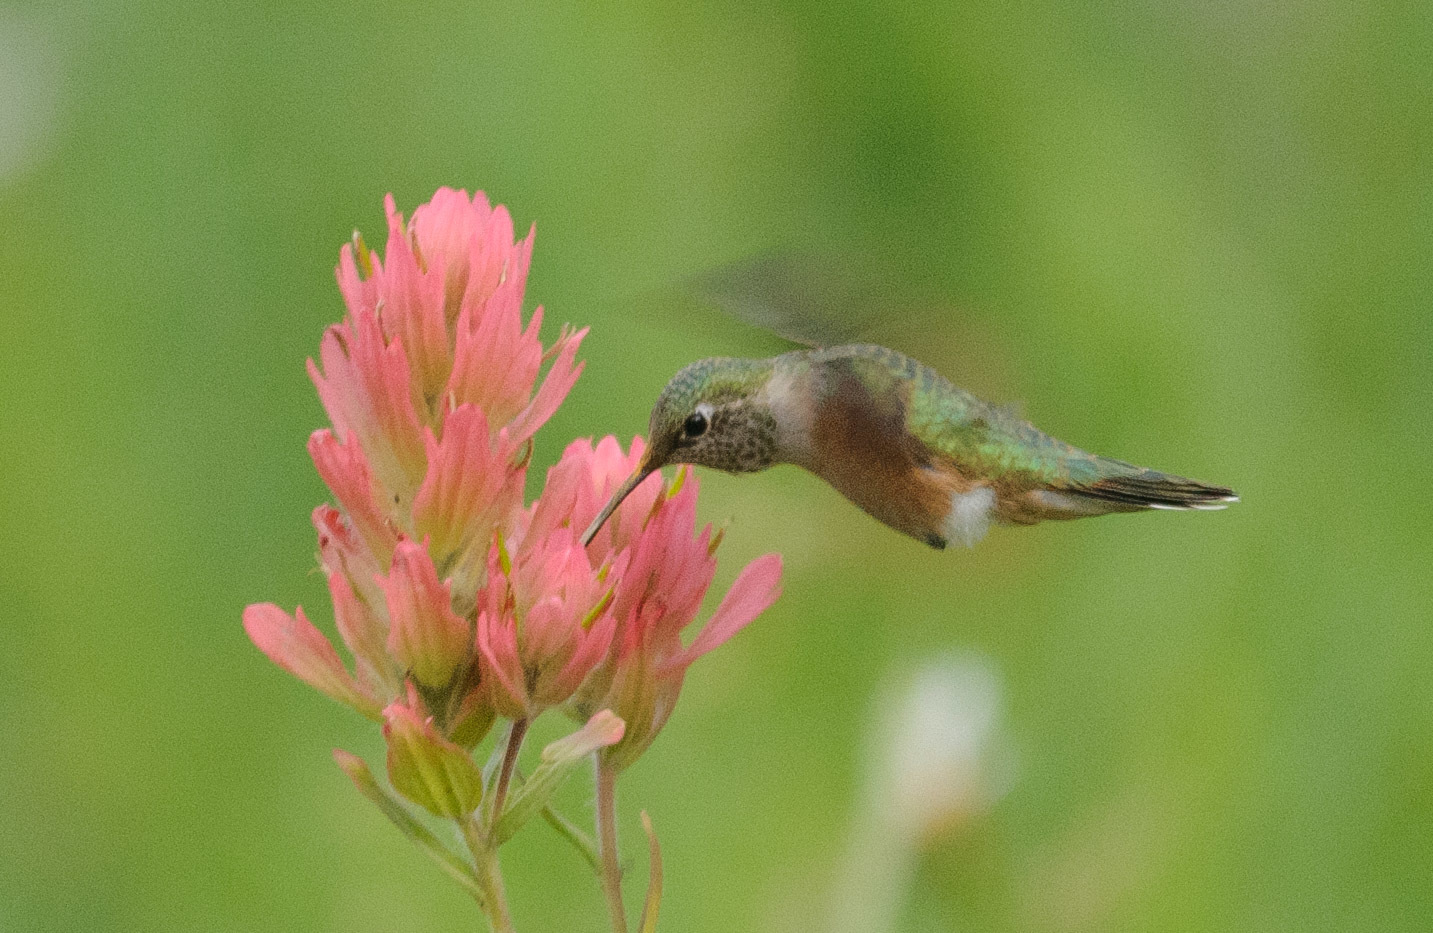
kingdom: Animalia
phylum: Chordata
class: Aves
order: Apodiformes
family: Trochilidae
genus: Selasphorus
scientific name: Selasphorus rufus
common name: Rufous hummingbird
